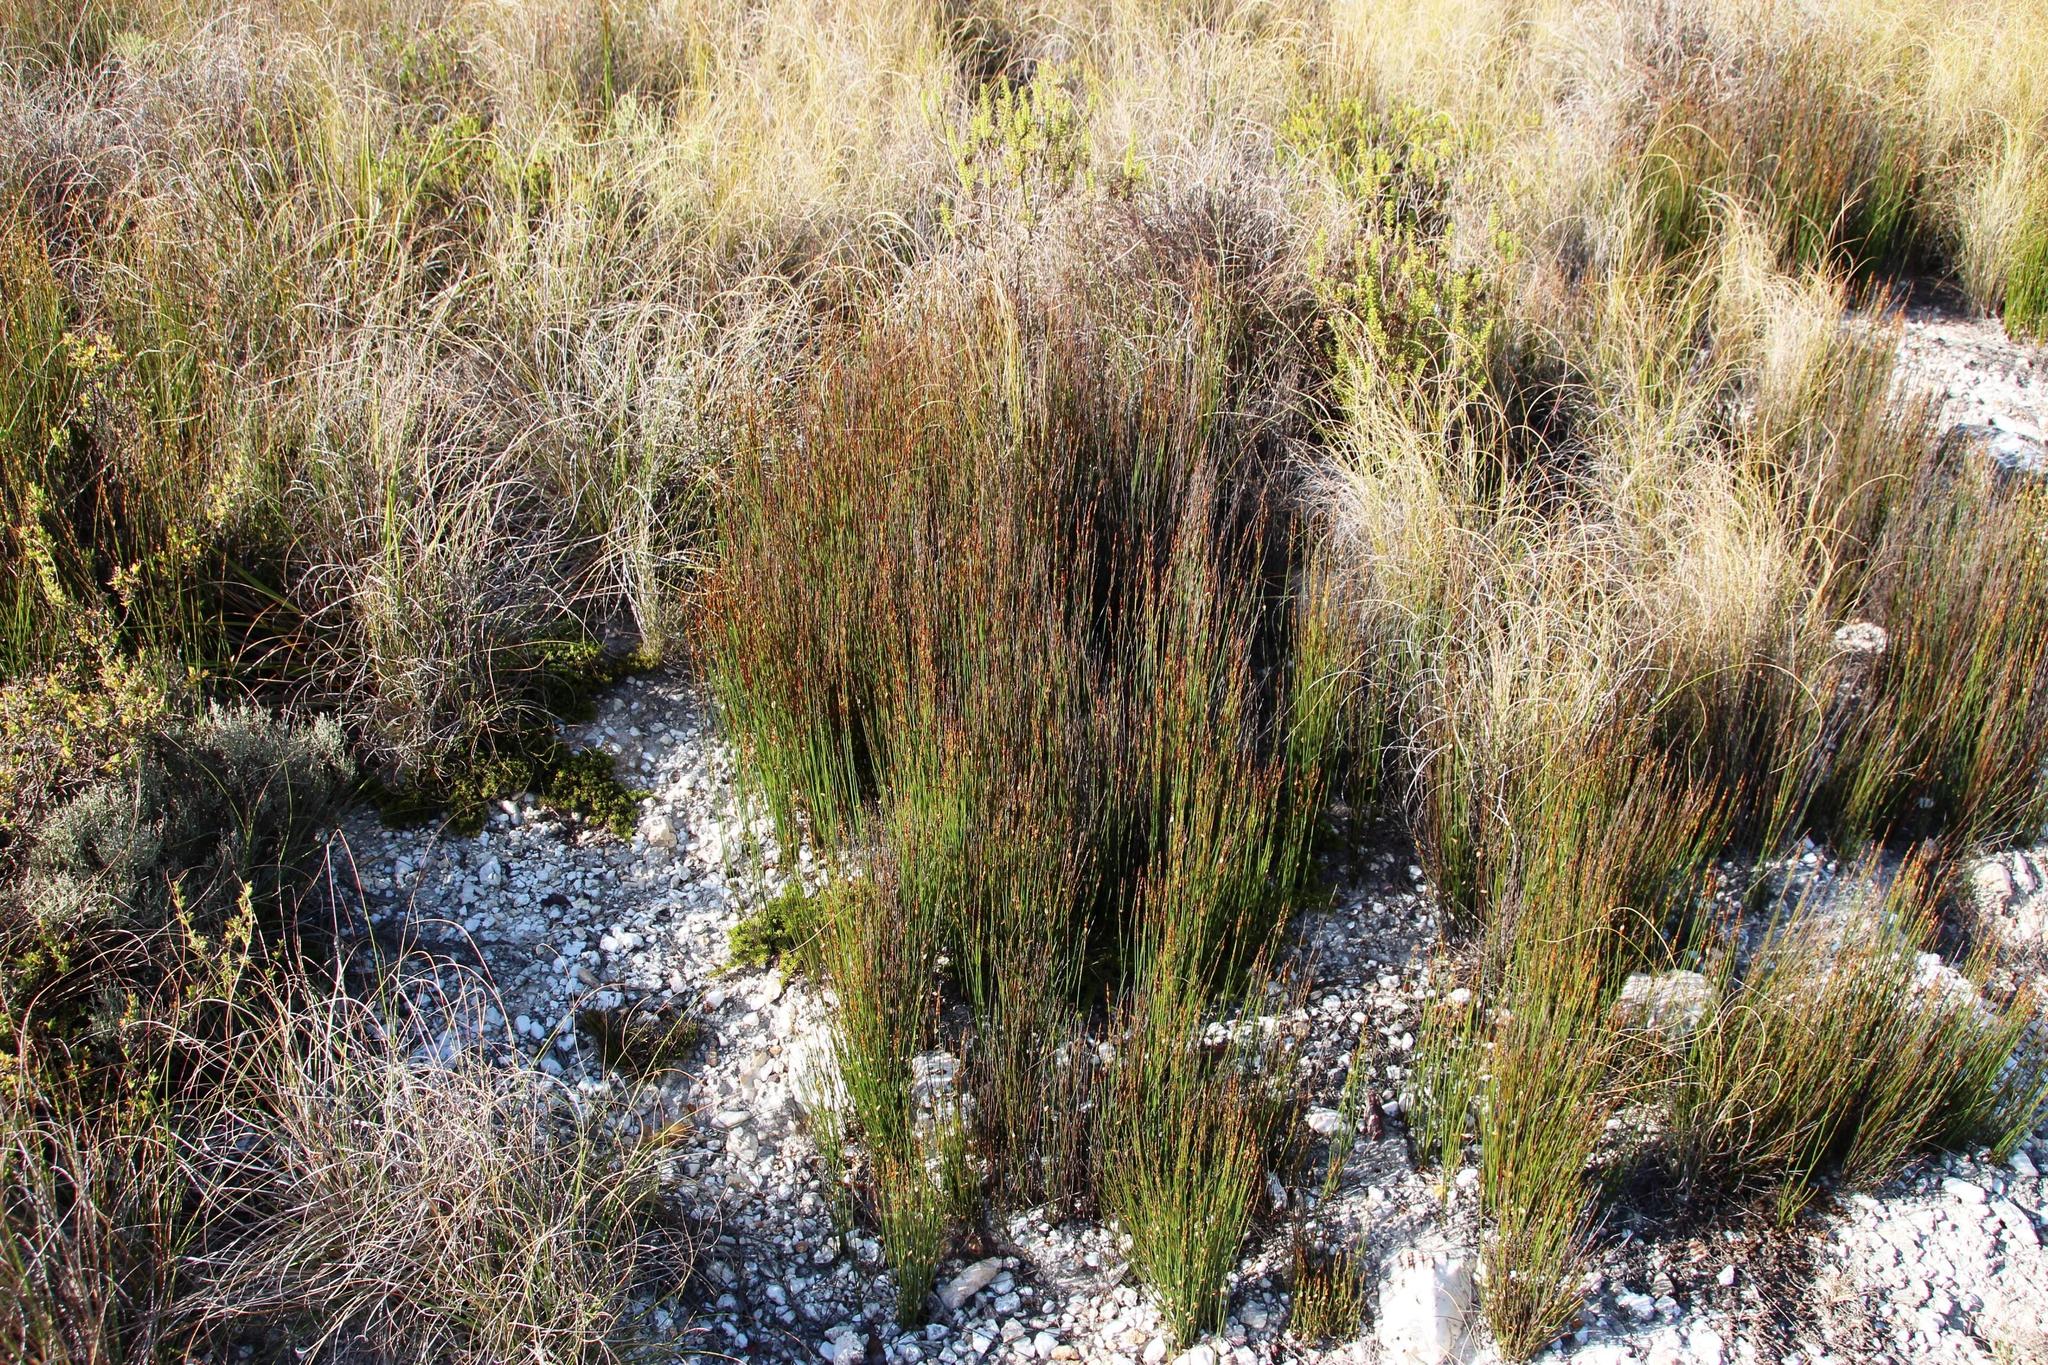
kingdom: Plantae
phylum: Tracheophyta
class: Liliopsida
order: Poales
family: Restionaceae
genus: Elegia
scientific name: Elegia recta
